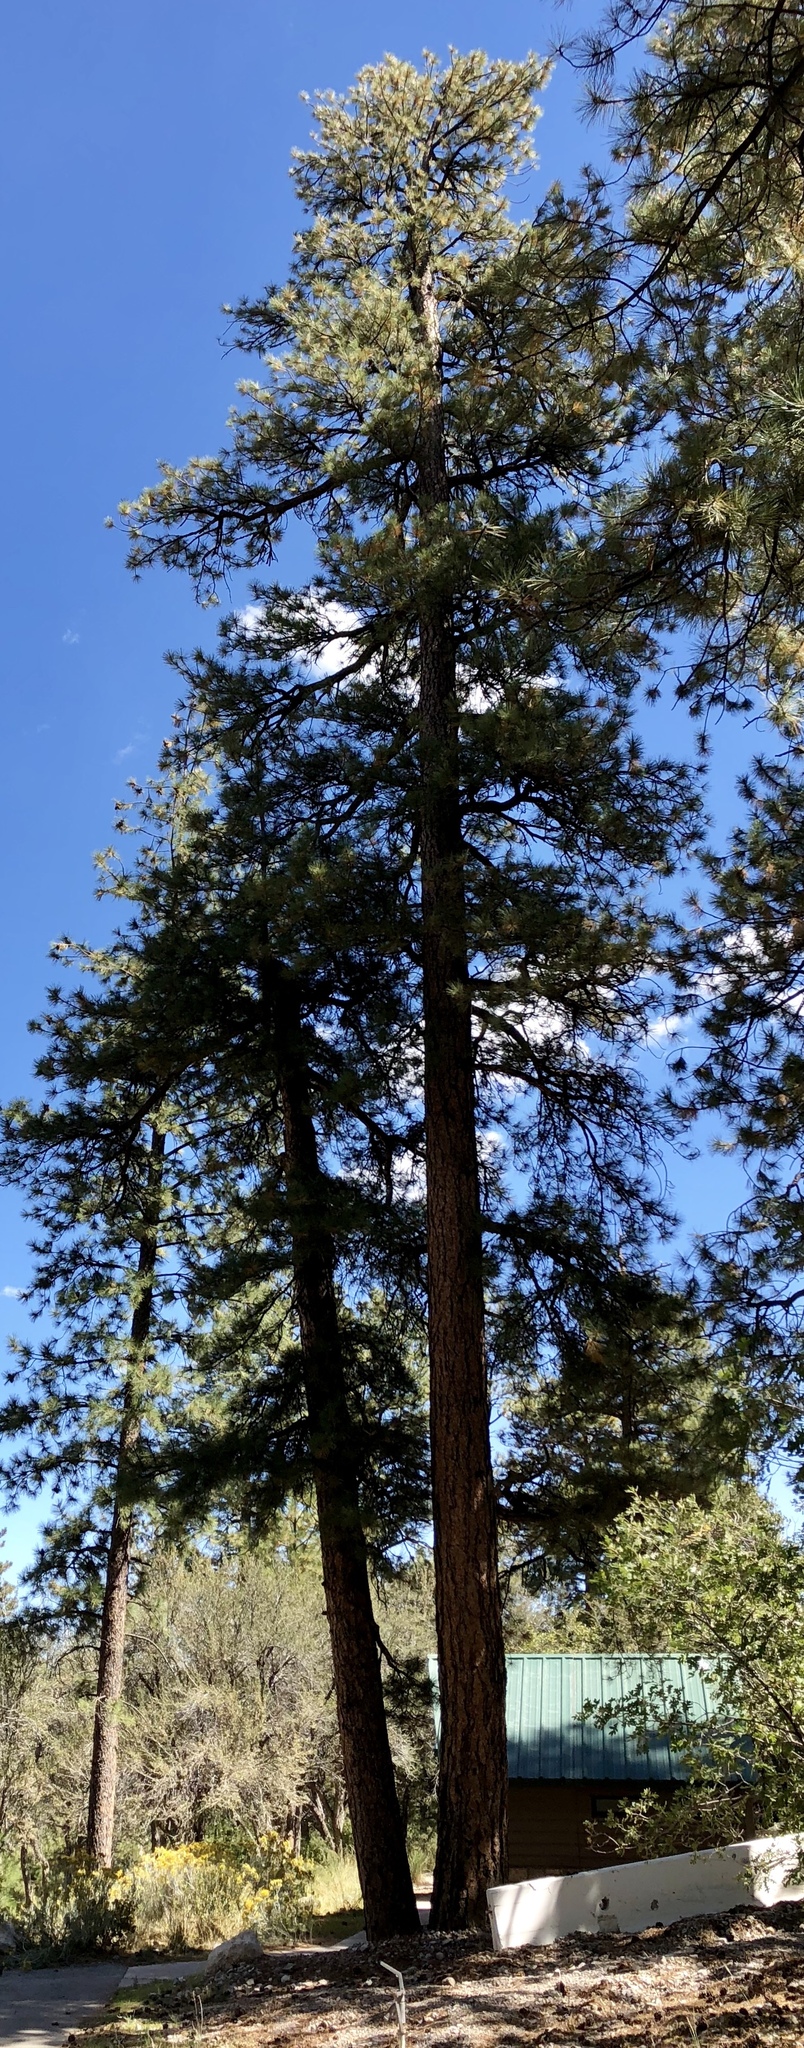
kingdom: Plantae
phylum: Tracheophyta
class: Pinopsida
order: Pinales
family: Pinaceae
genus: Pinus
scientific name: Pinus ponderosa
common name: Western yellow-pine
